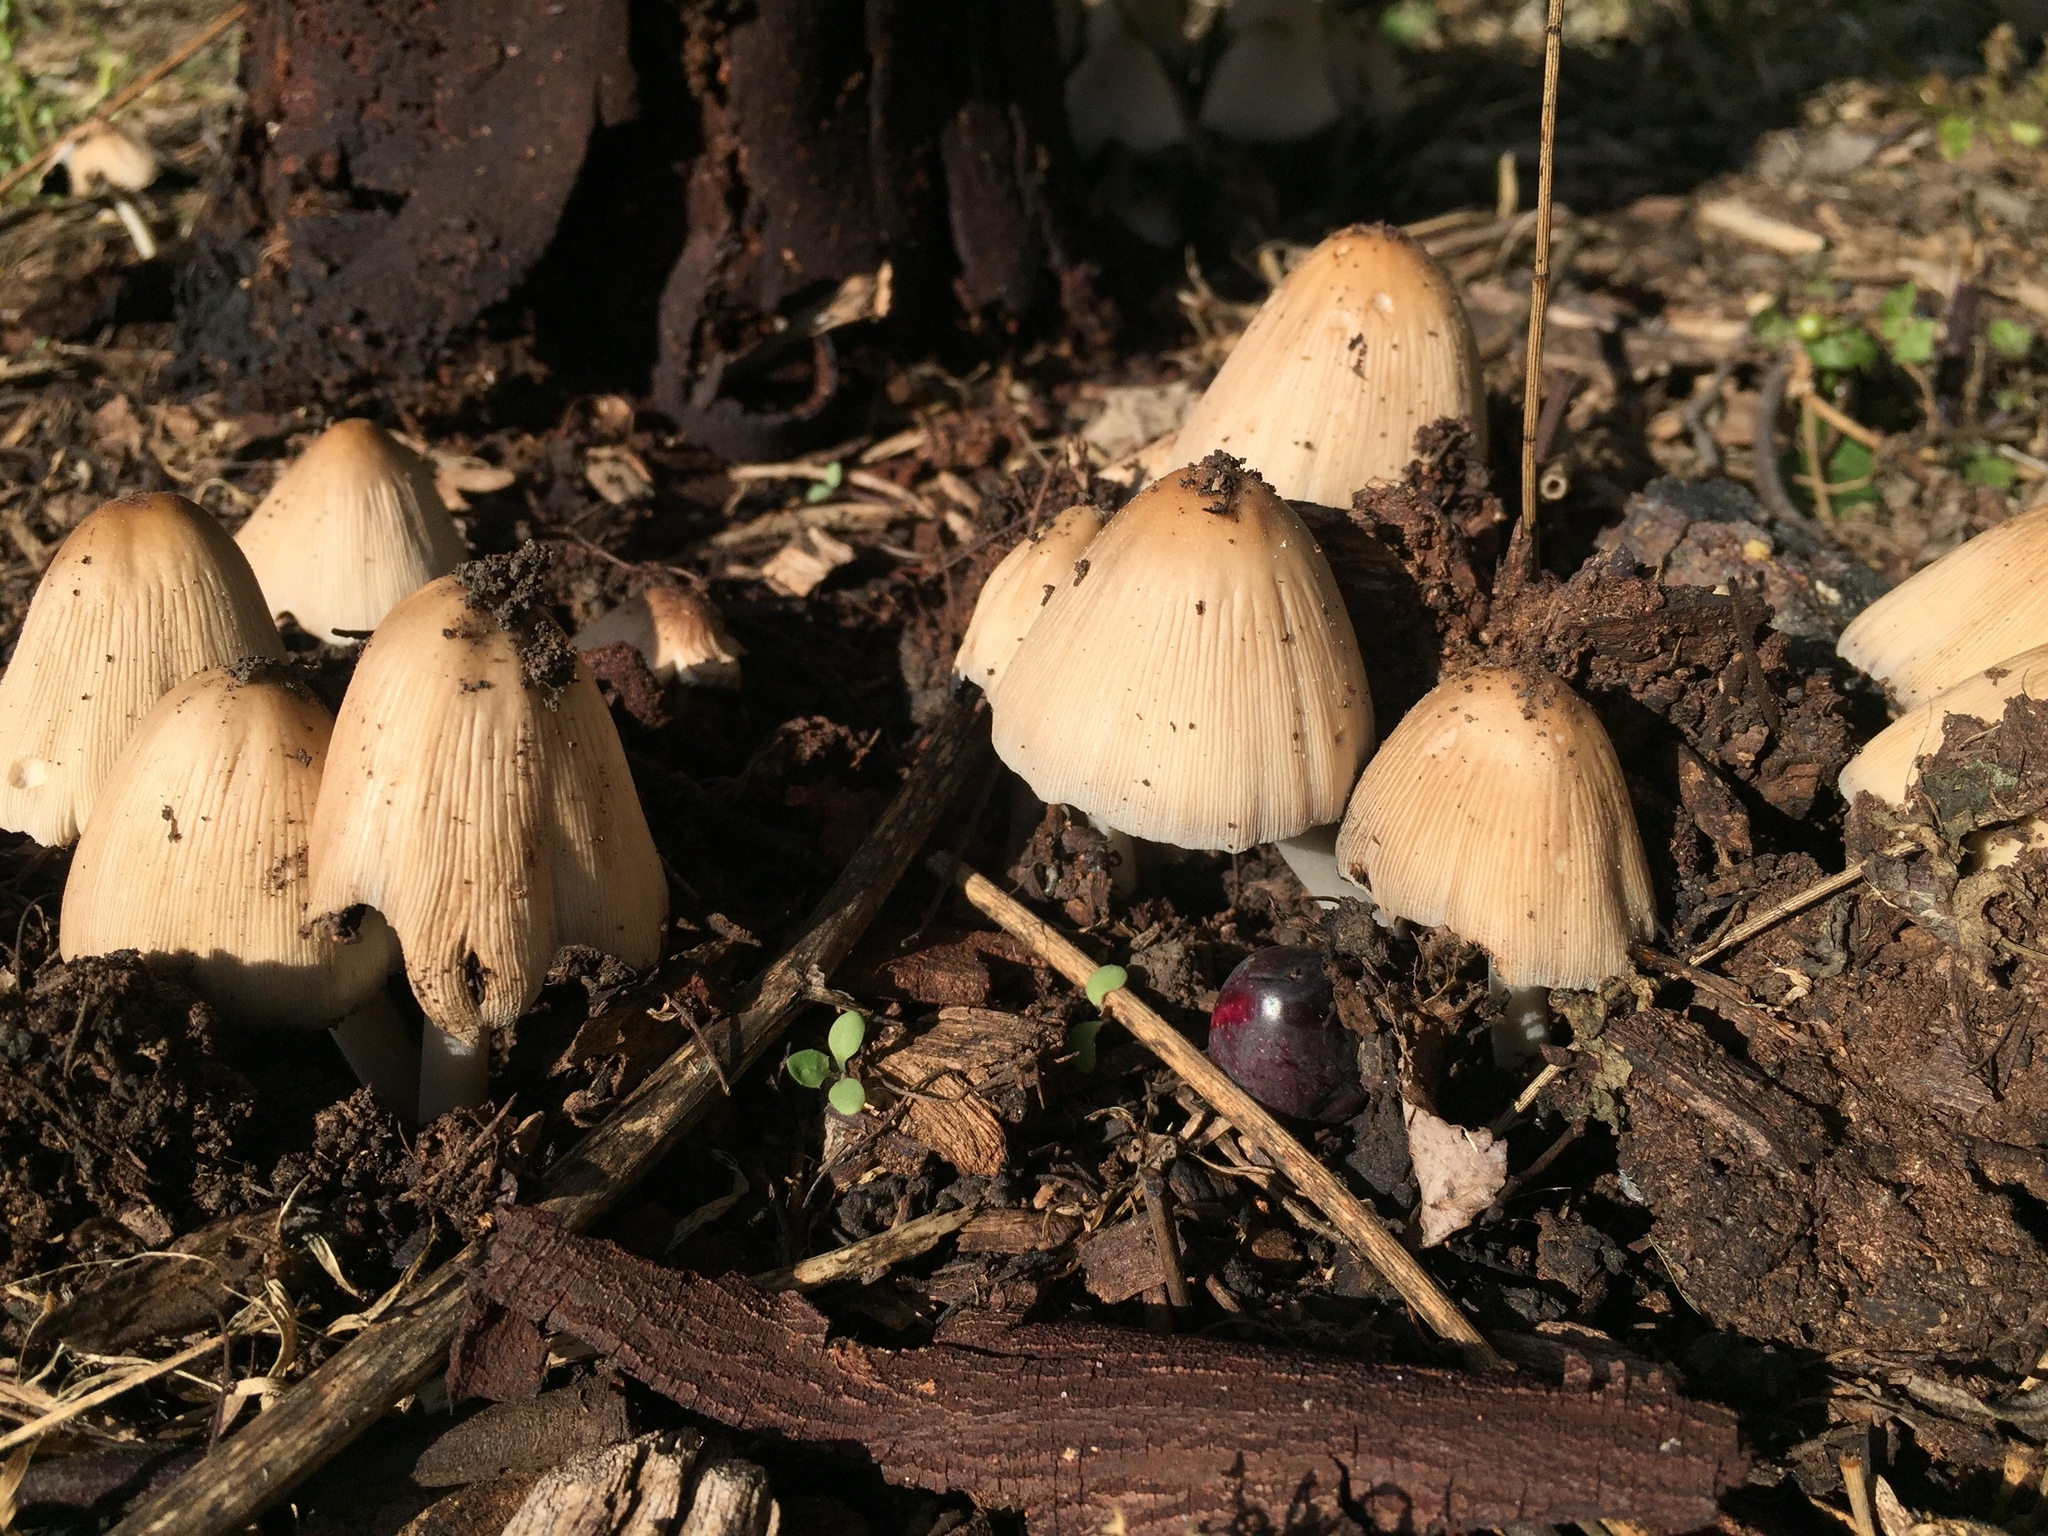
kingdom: Fungi
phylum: Basidiomycota
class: Agaricomycetes
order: Agaricales
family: Psathyrellaceae
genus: Coprinellus
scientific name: Coprinellus micaceus
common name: Glistening ink-cap
